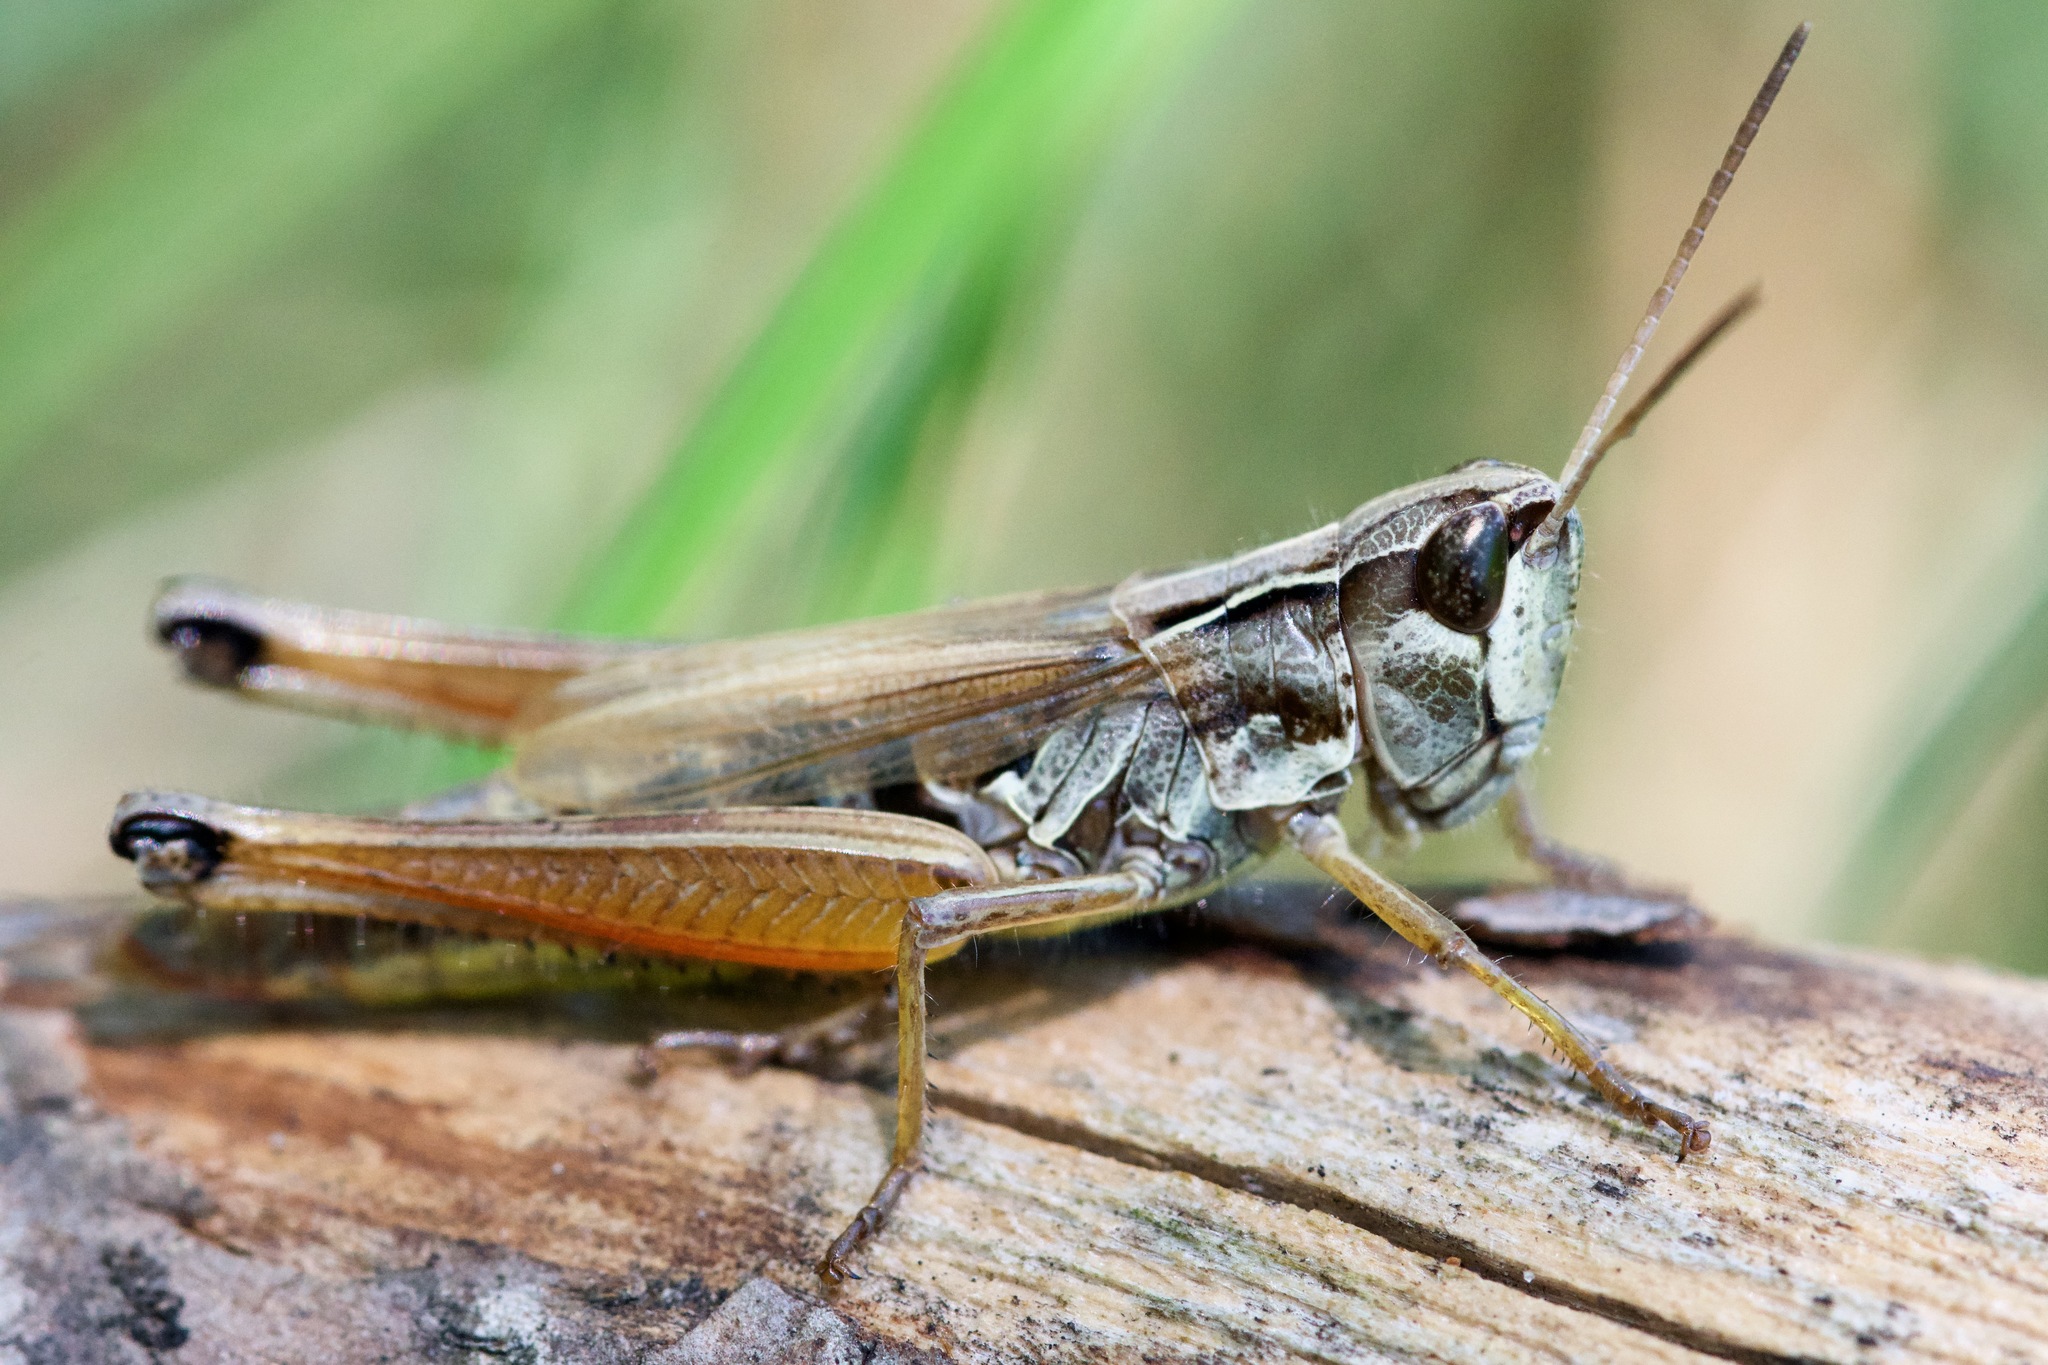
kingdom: Animalia
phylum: Arthropoda
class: Insecta
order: Orthoptera
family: Acrididae
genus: Pseudochorthippus
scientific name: Pseudochorthippus curtipennis
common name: Marsh meadow grasshopper
